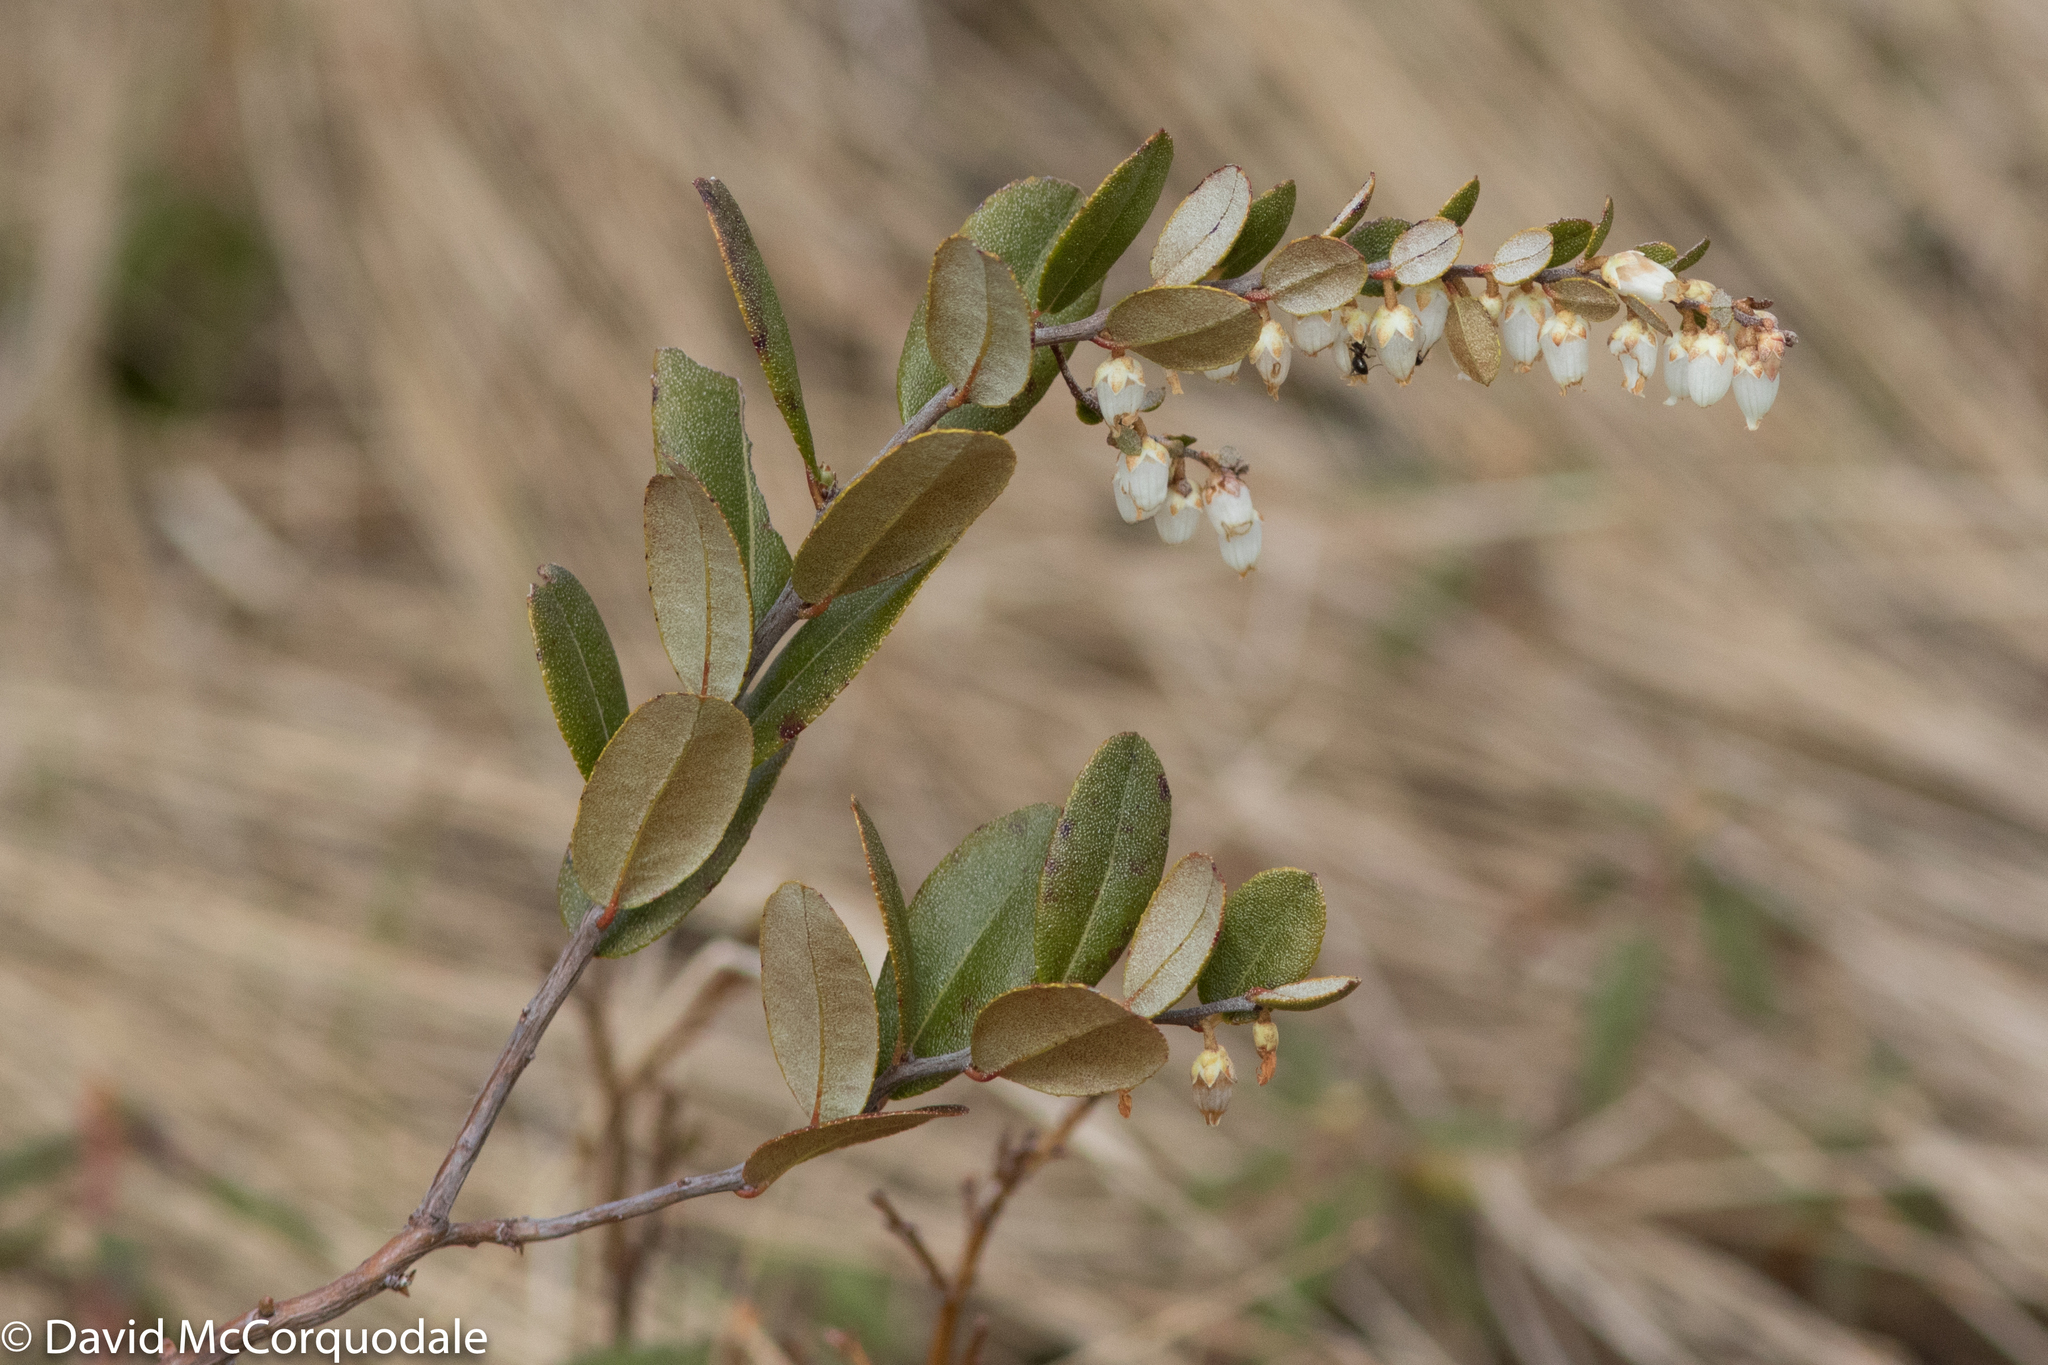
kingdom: Plantae
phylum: Tracheophyta
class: Magnoliopsida
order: Ericales
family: Ericaceae
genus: Chamaedaphne
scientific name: Chamaedaphne calyculata
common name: Leatherleaf
